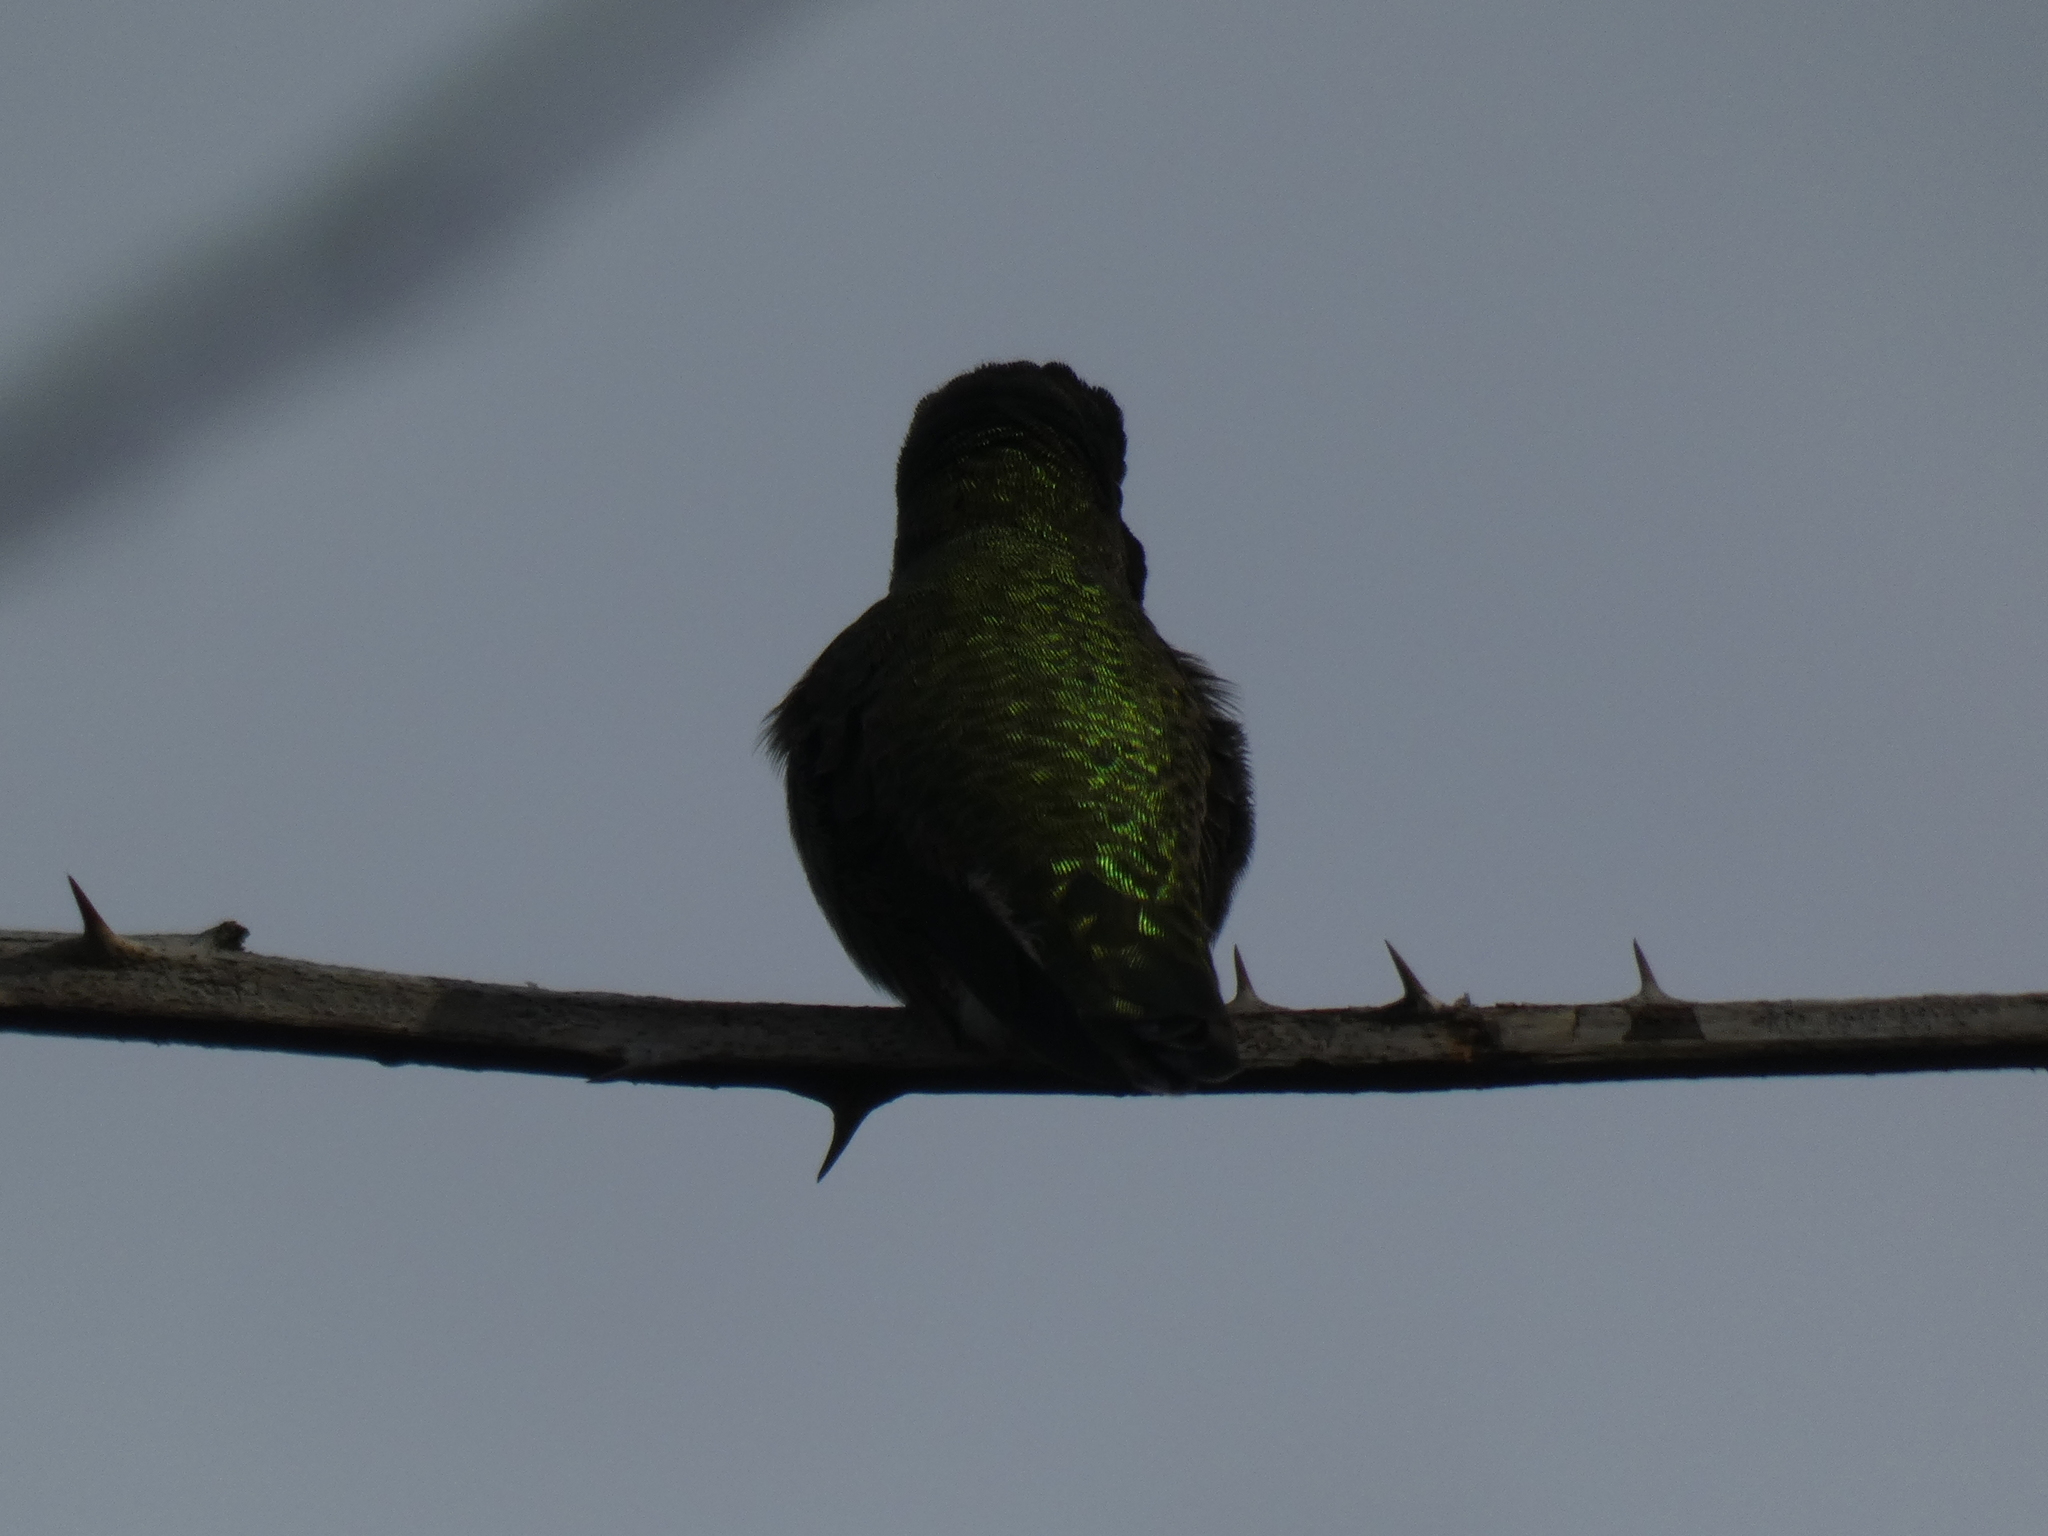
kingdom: Animalia
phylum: Chordata
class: Aves
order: Apodiformes
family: Trochilidae
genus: Calypte
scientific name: Calypte anna
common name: Anna's hummingbird
